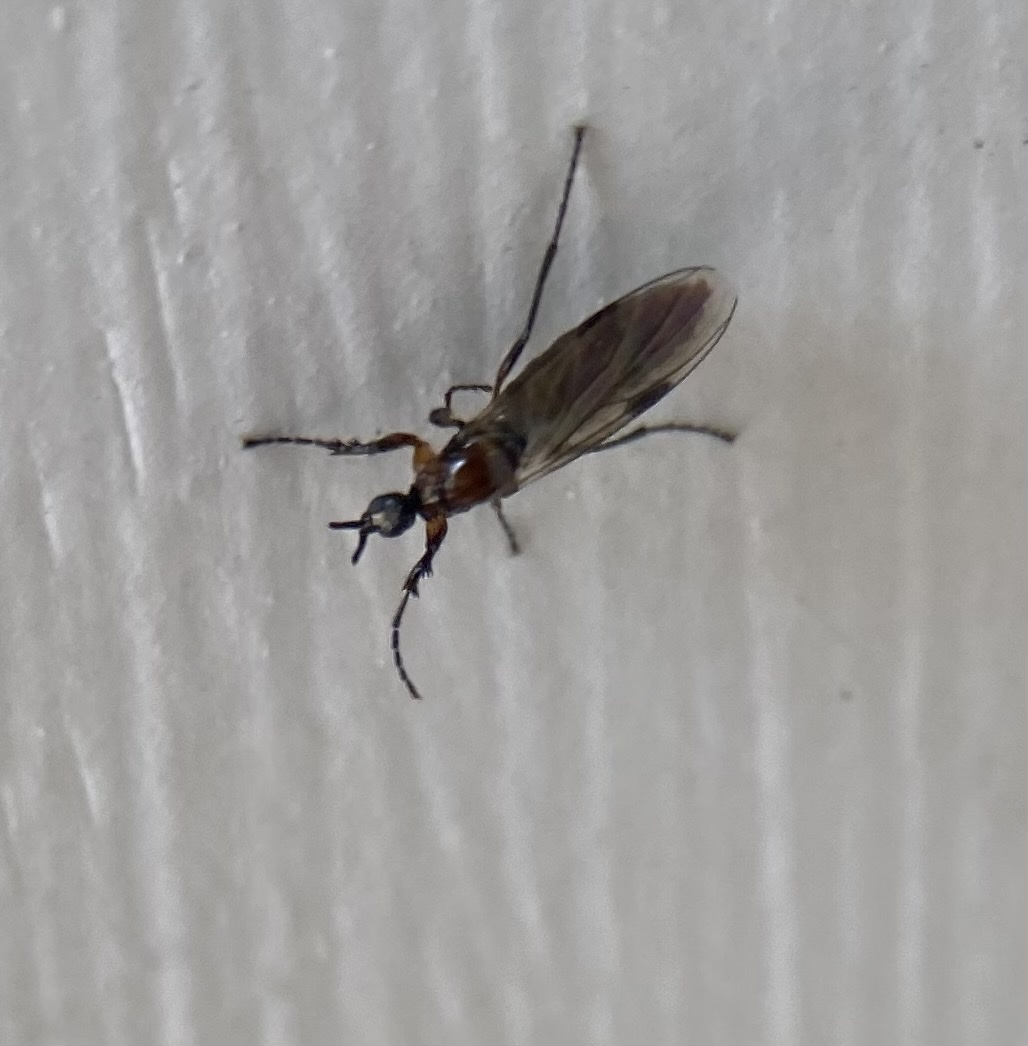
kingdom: Animalia
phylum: Arthropoda
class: Insecta
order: Diptera
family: Bibionidae
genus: Dilophus
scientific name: Dilophus tibialis
